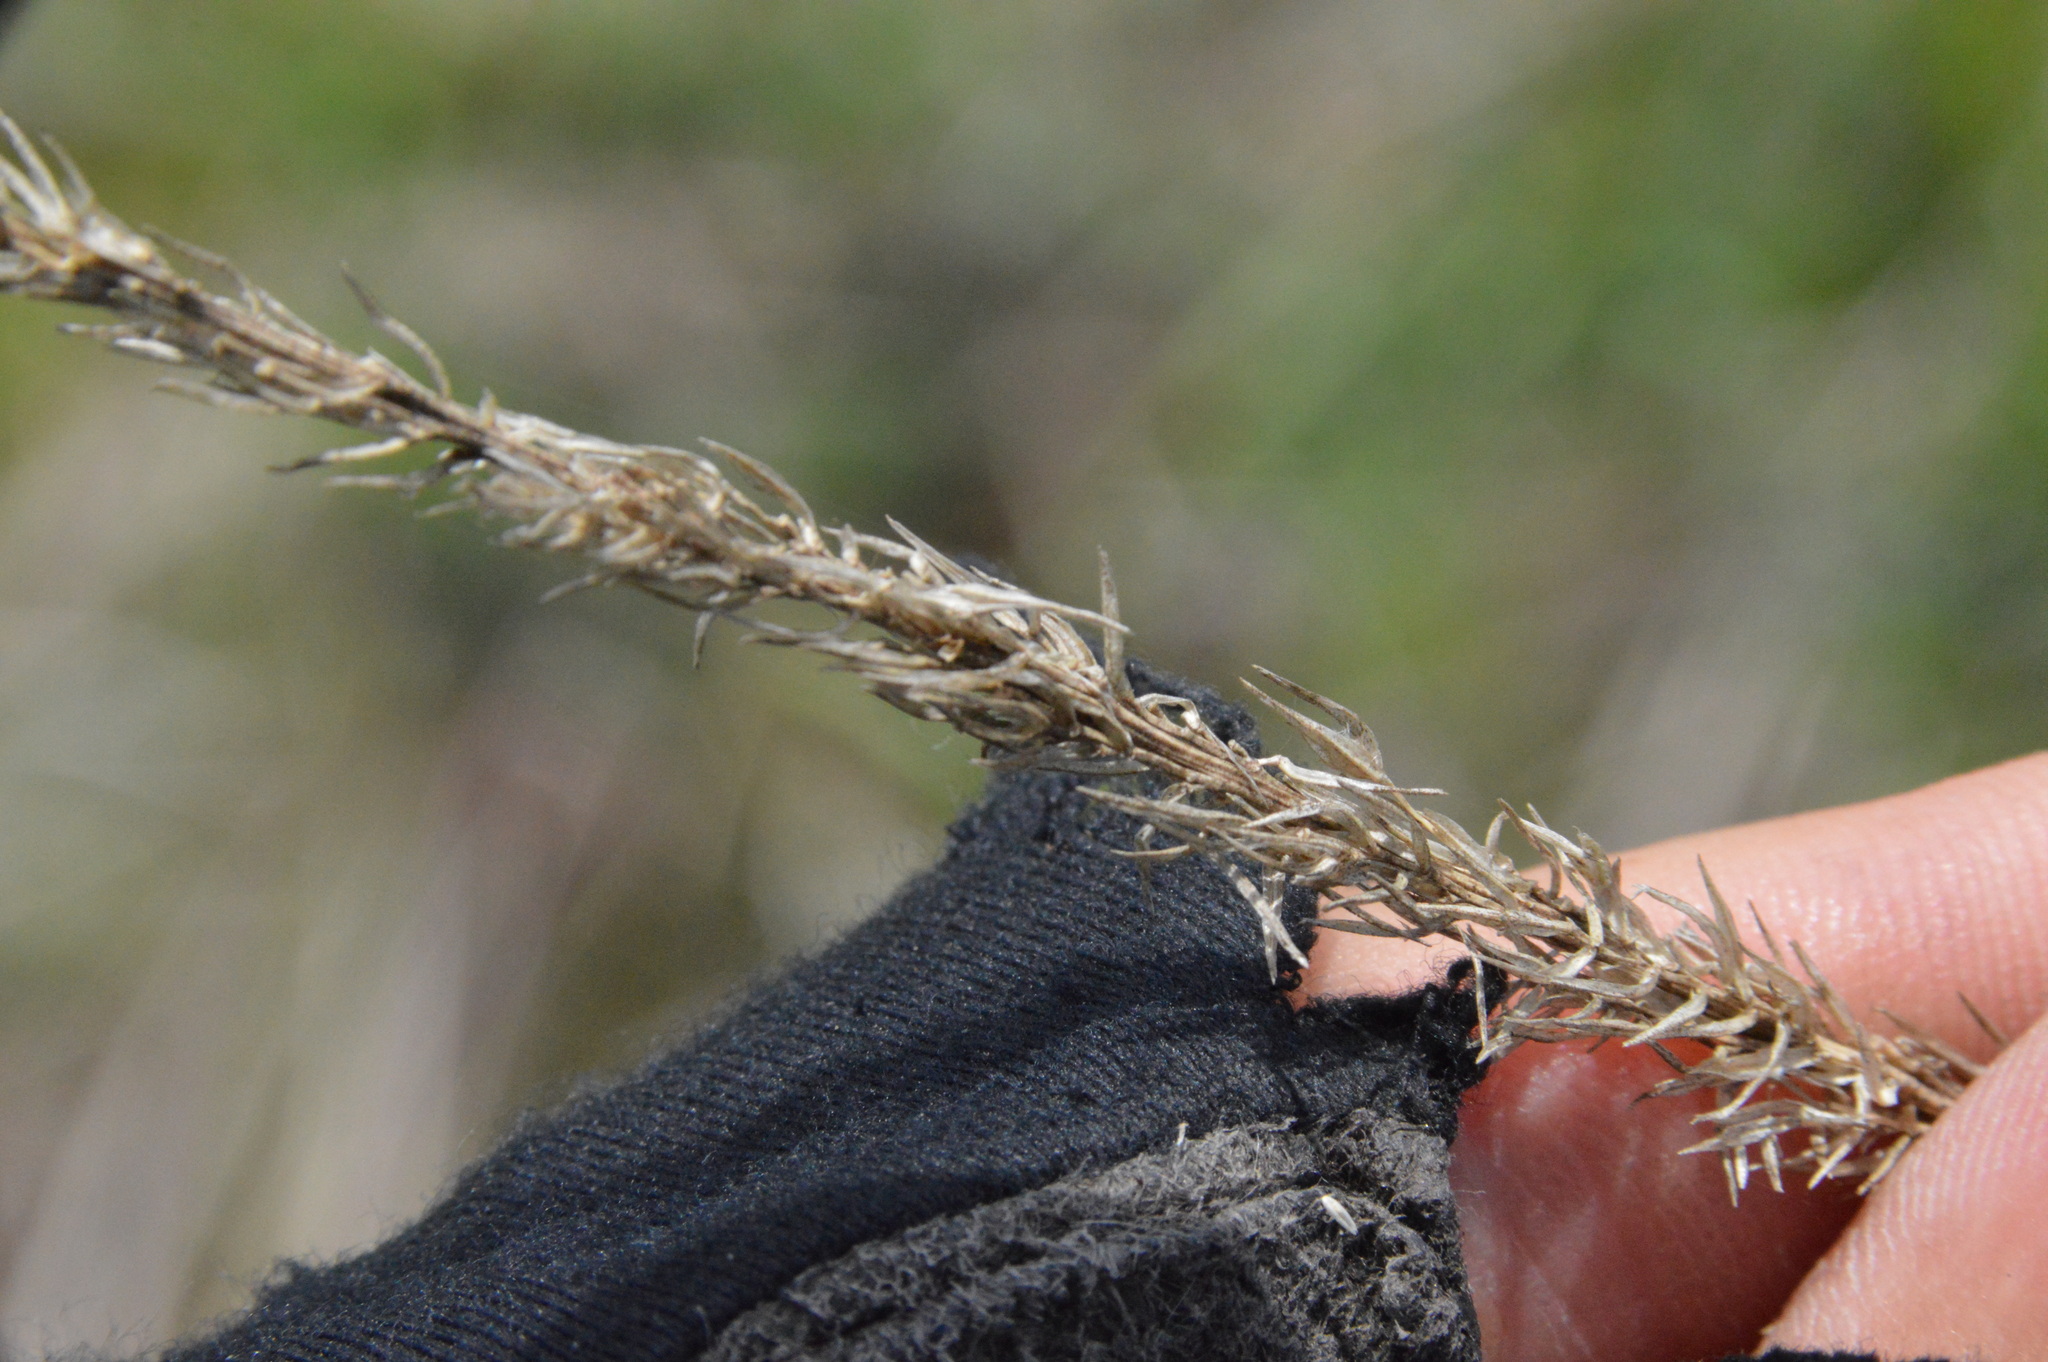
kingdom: Plantae
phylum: Tracheophyta
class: Liliopsida
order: Poales
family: Poaceae
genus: Tridens
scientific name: Tridens strictus
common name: Long-spike tridens
